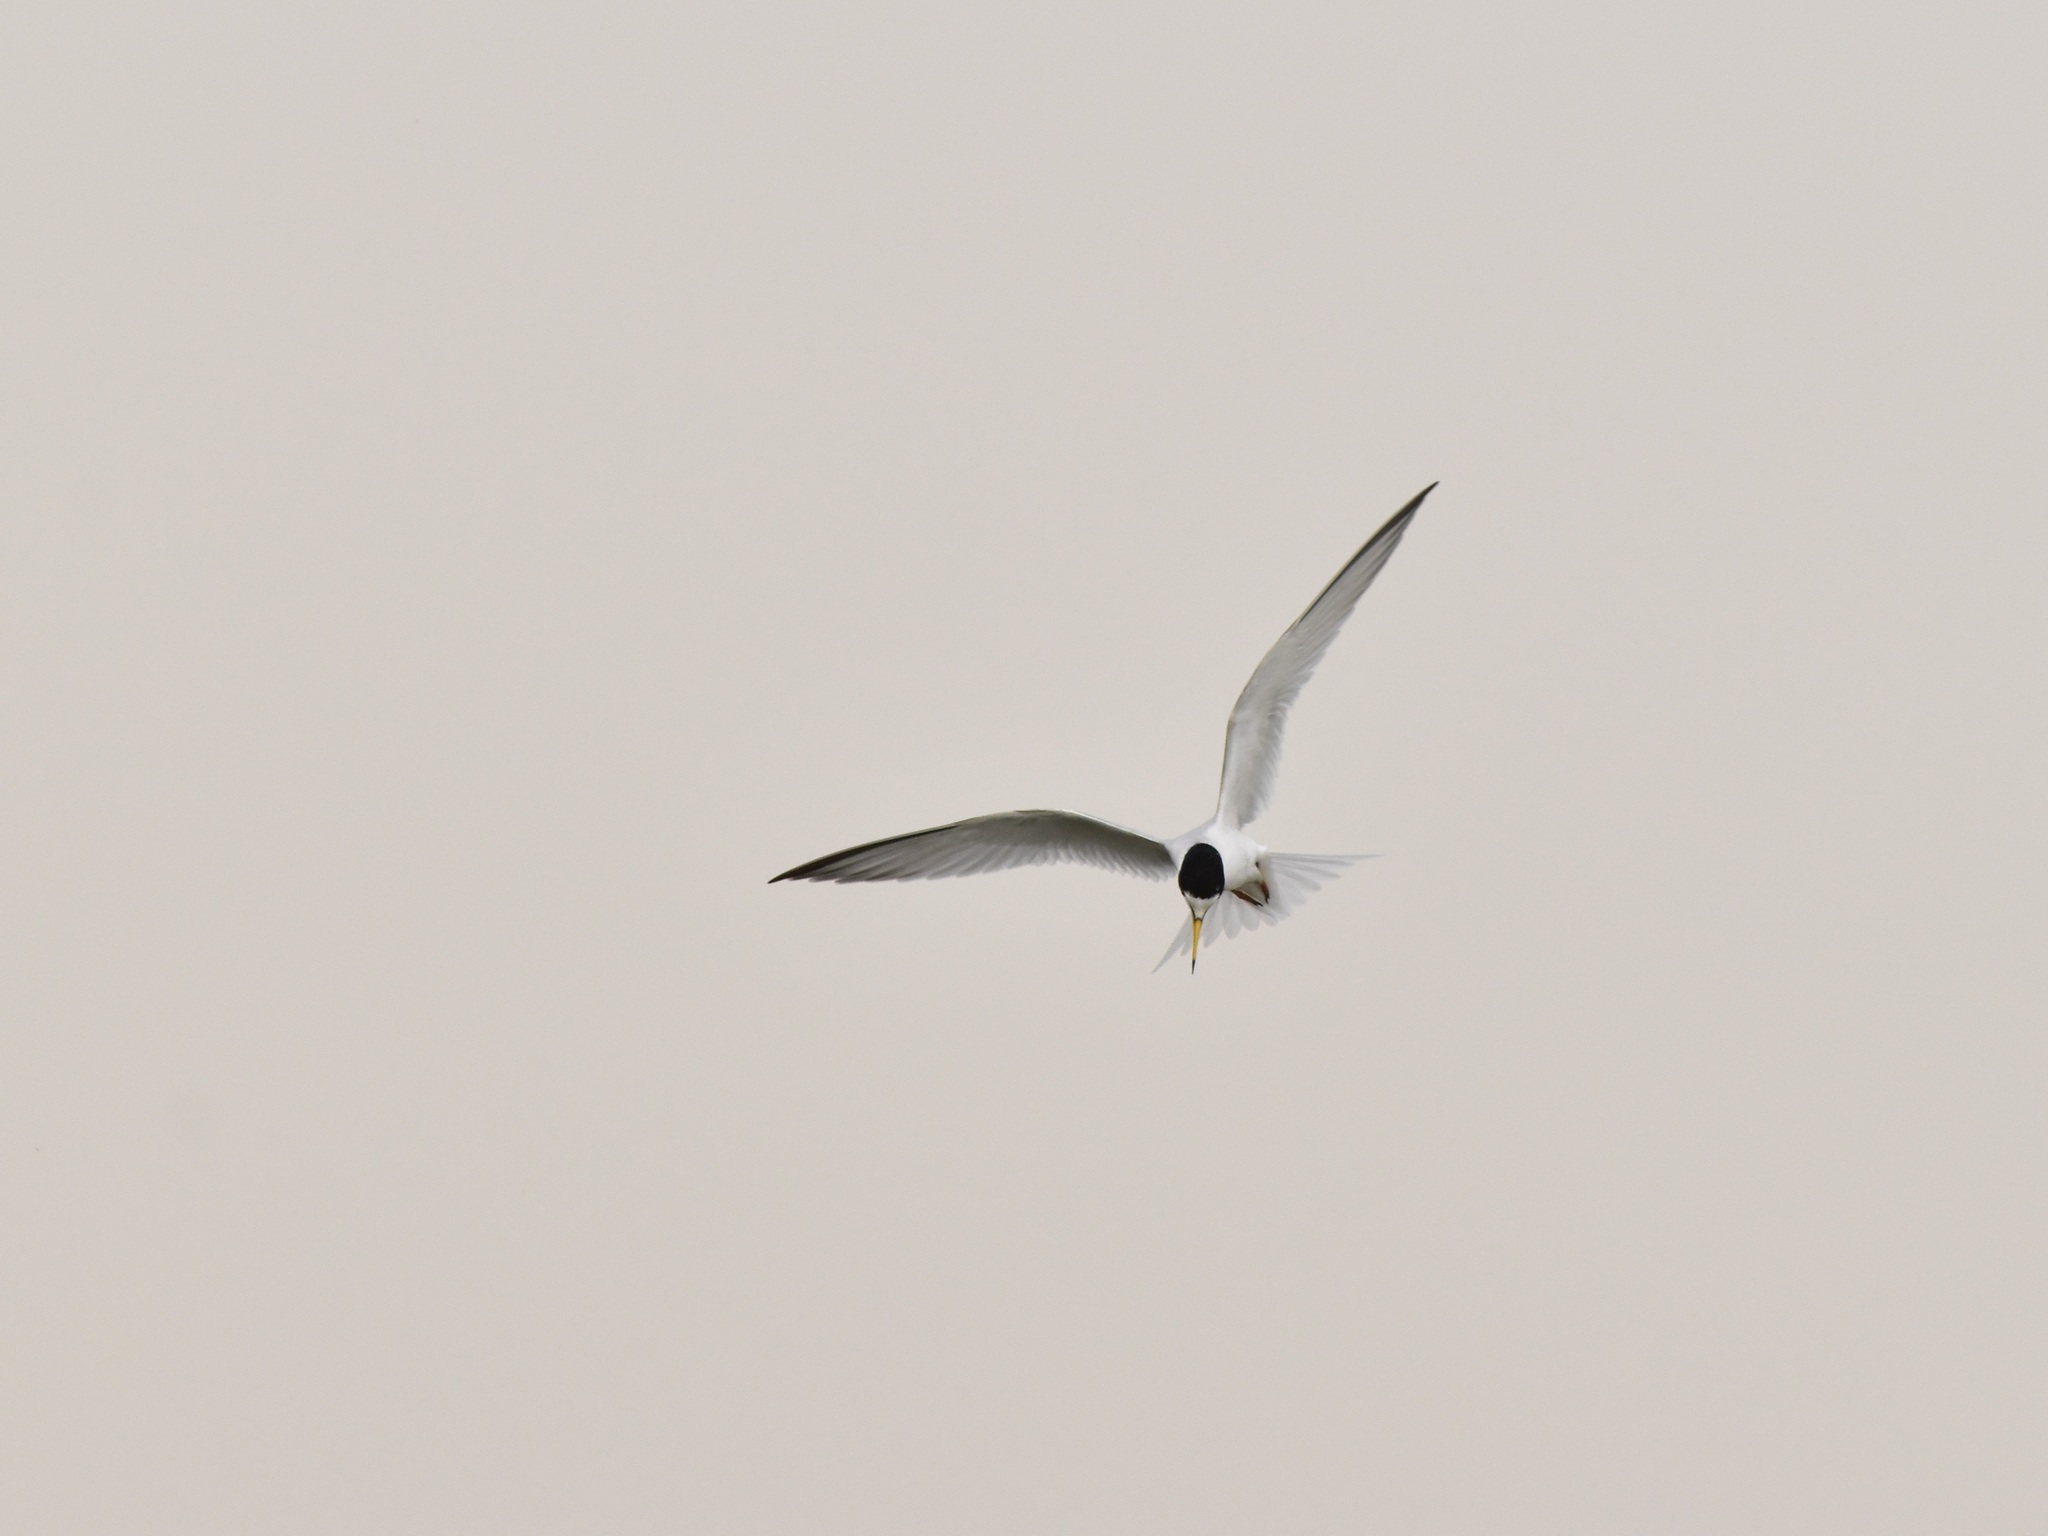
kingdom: Animalia
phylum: Chordata
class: Aves
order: Charadriiformes
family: Laridae
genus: Sternula
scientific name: Sternula albifrons
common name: Little tern
